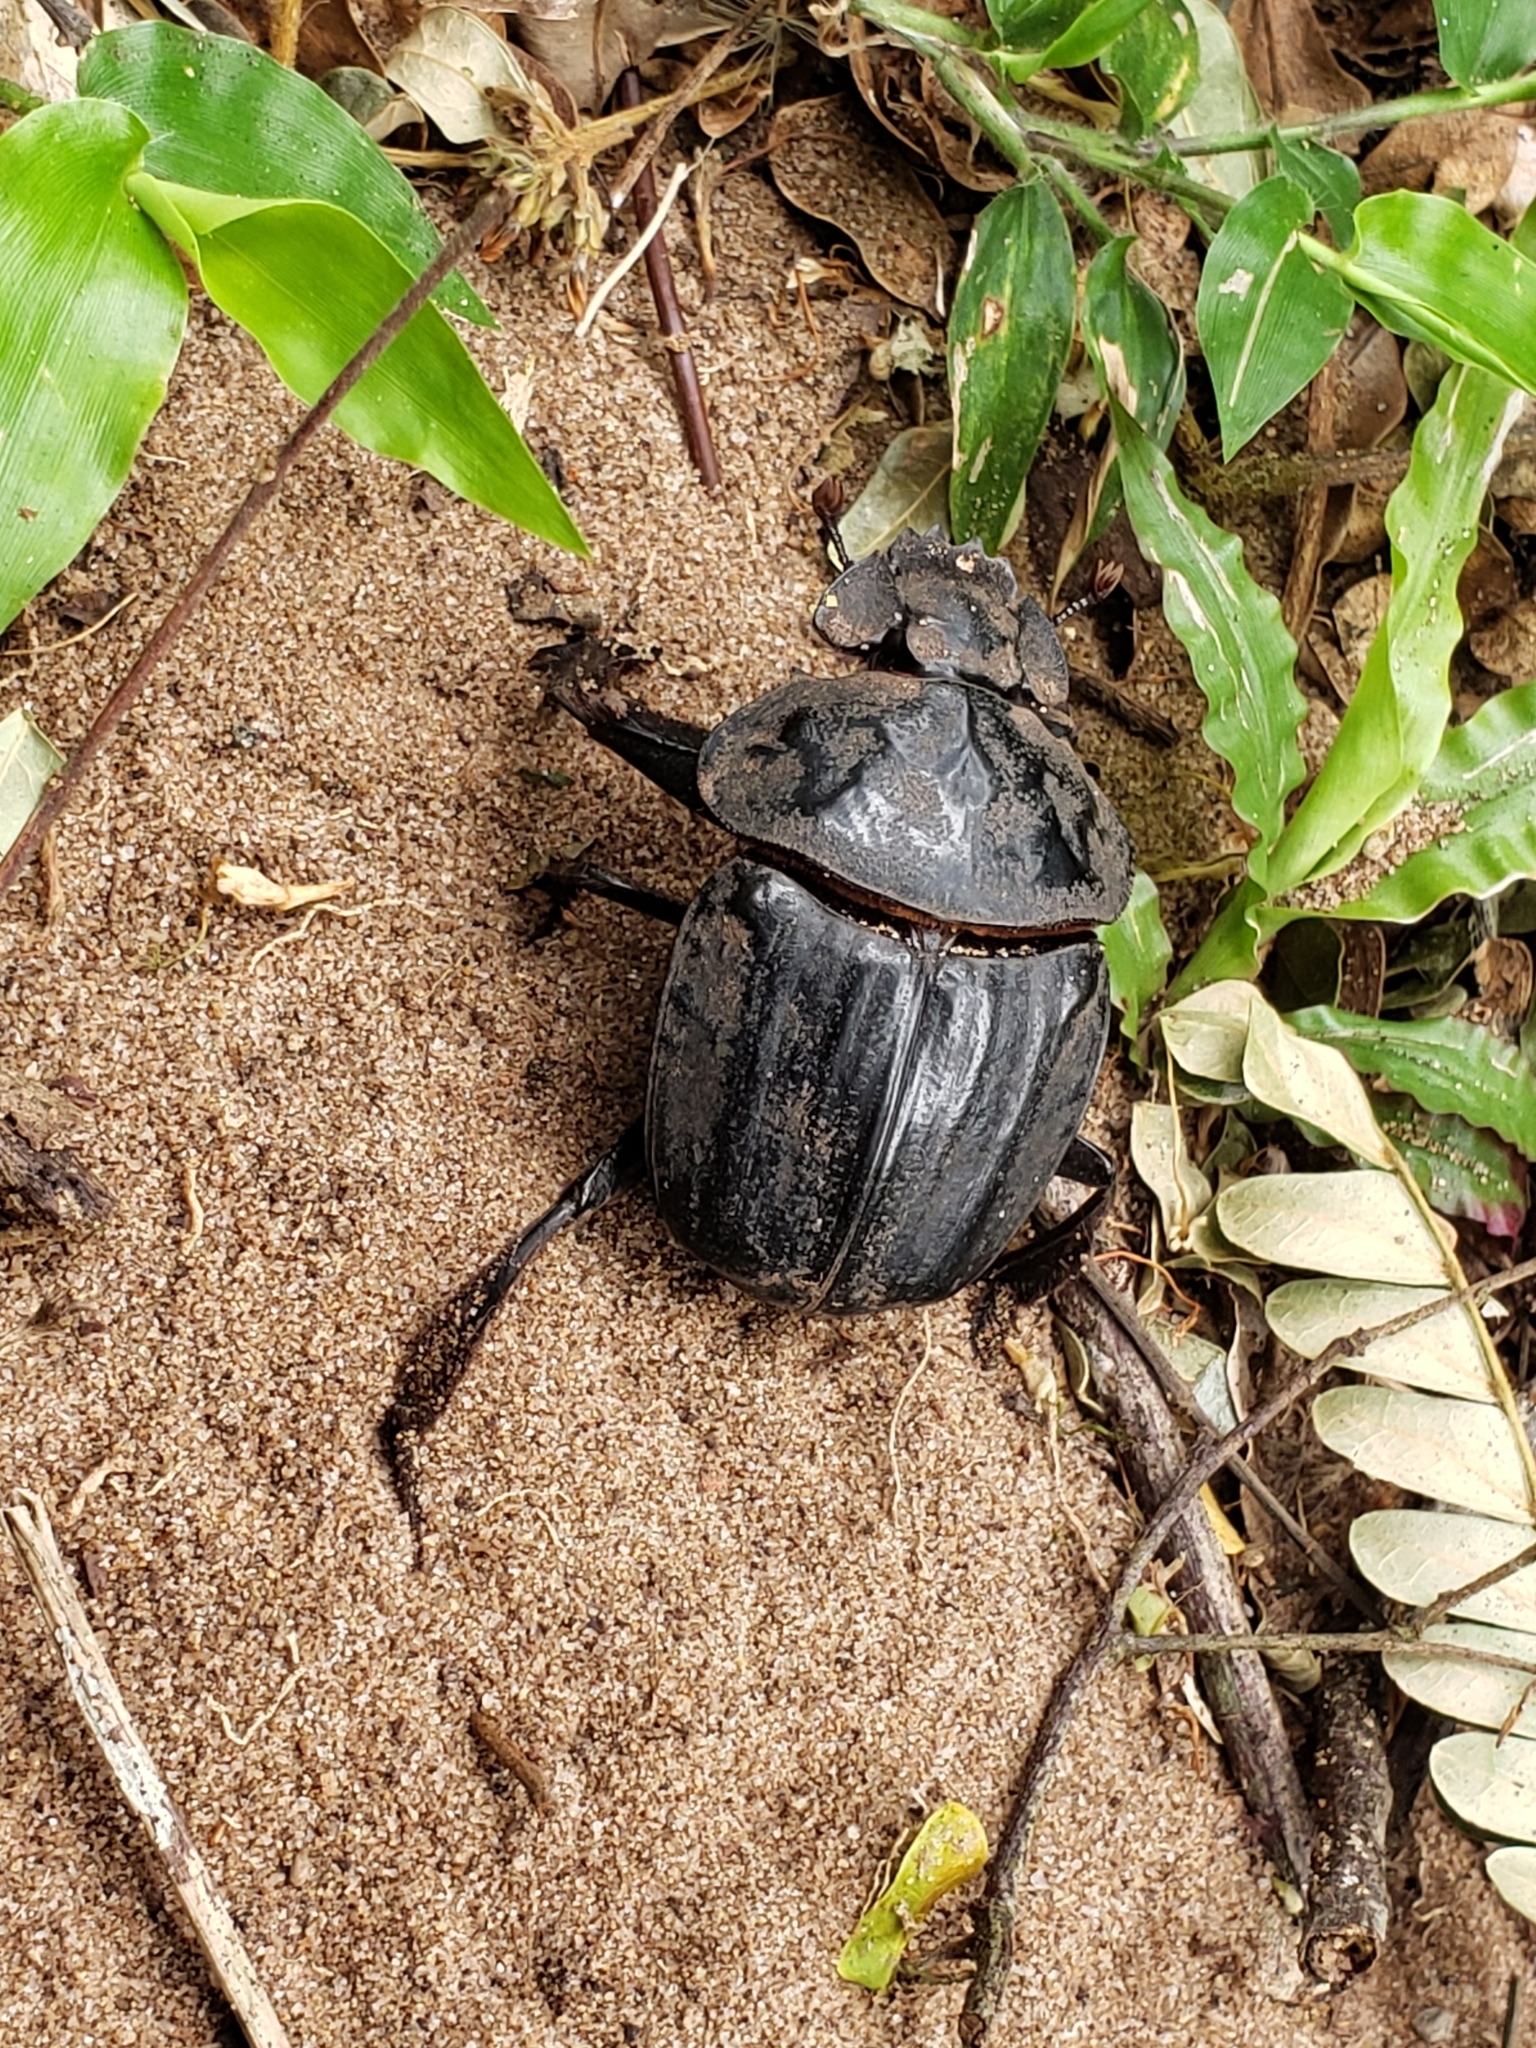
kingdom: Animalia
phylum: Arthropoda
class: Insecta
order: Coleoptera
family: Scarabaeidae
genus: Pachylomera
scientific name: Pachylomera femoralis
